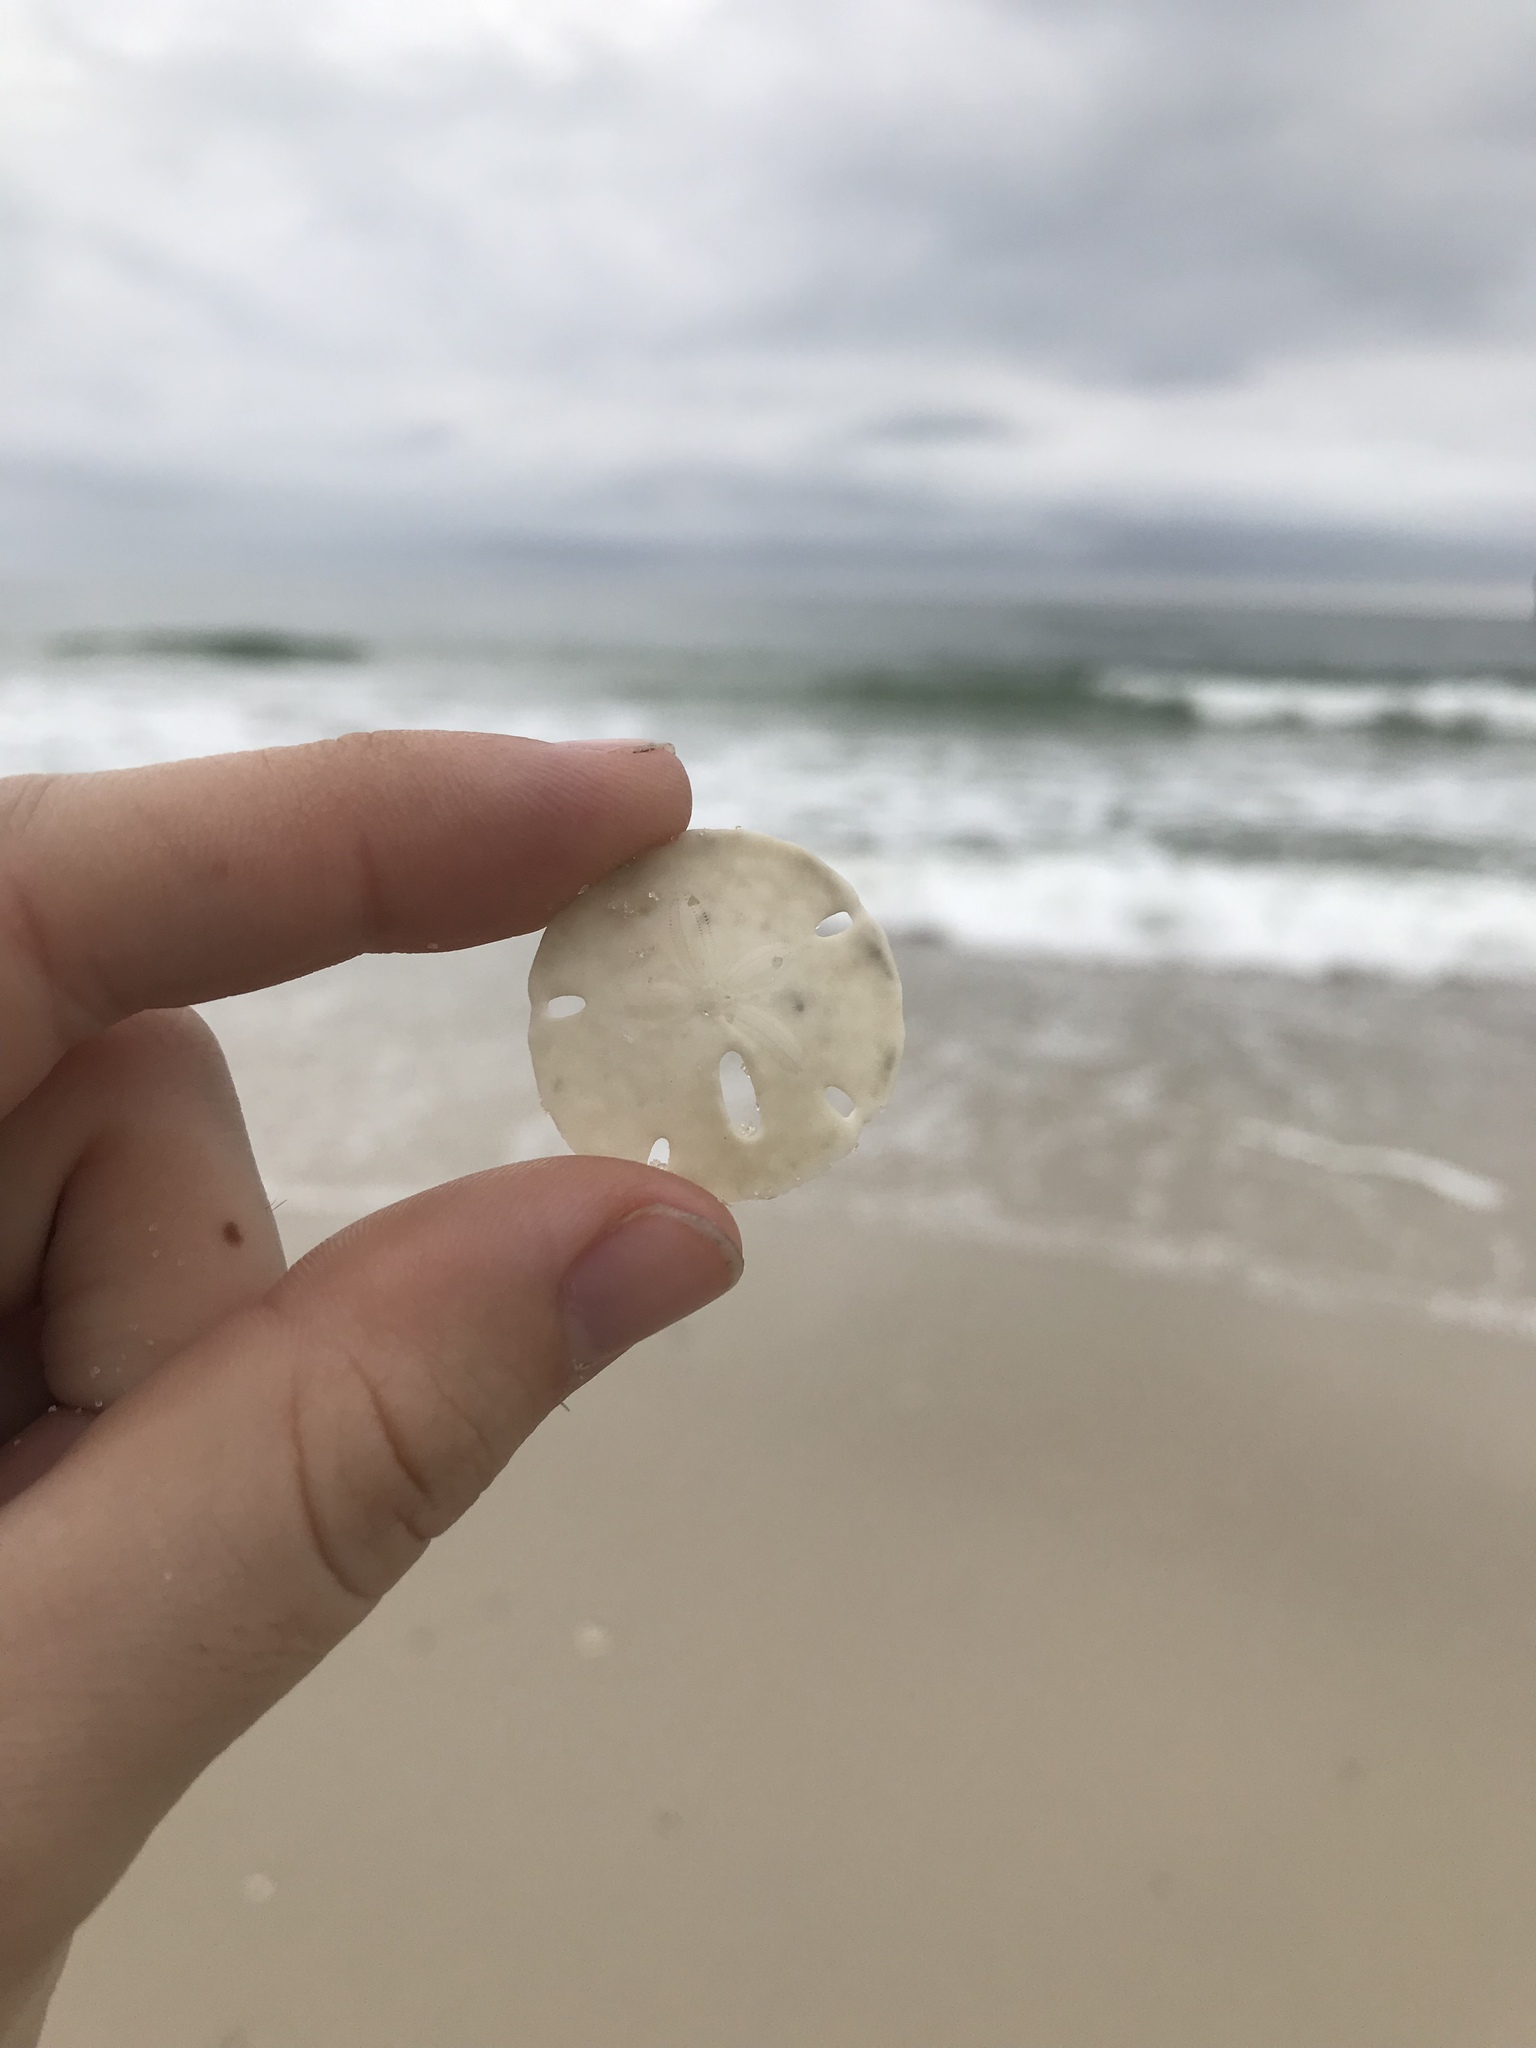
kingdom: Animalia
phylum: Echinodermata
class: Echinoidea
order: Echinolampadacea
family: Mellitidae
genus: Mellita
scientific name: Mellita quinquiesperforata
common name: Sand dollar
